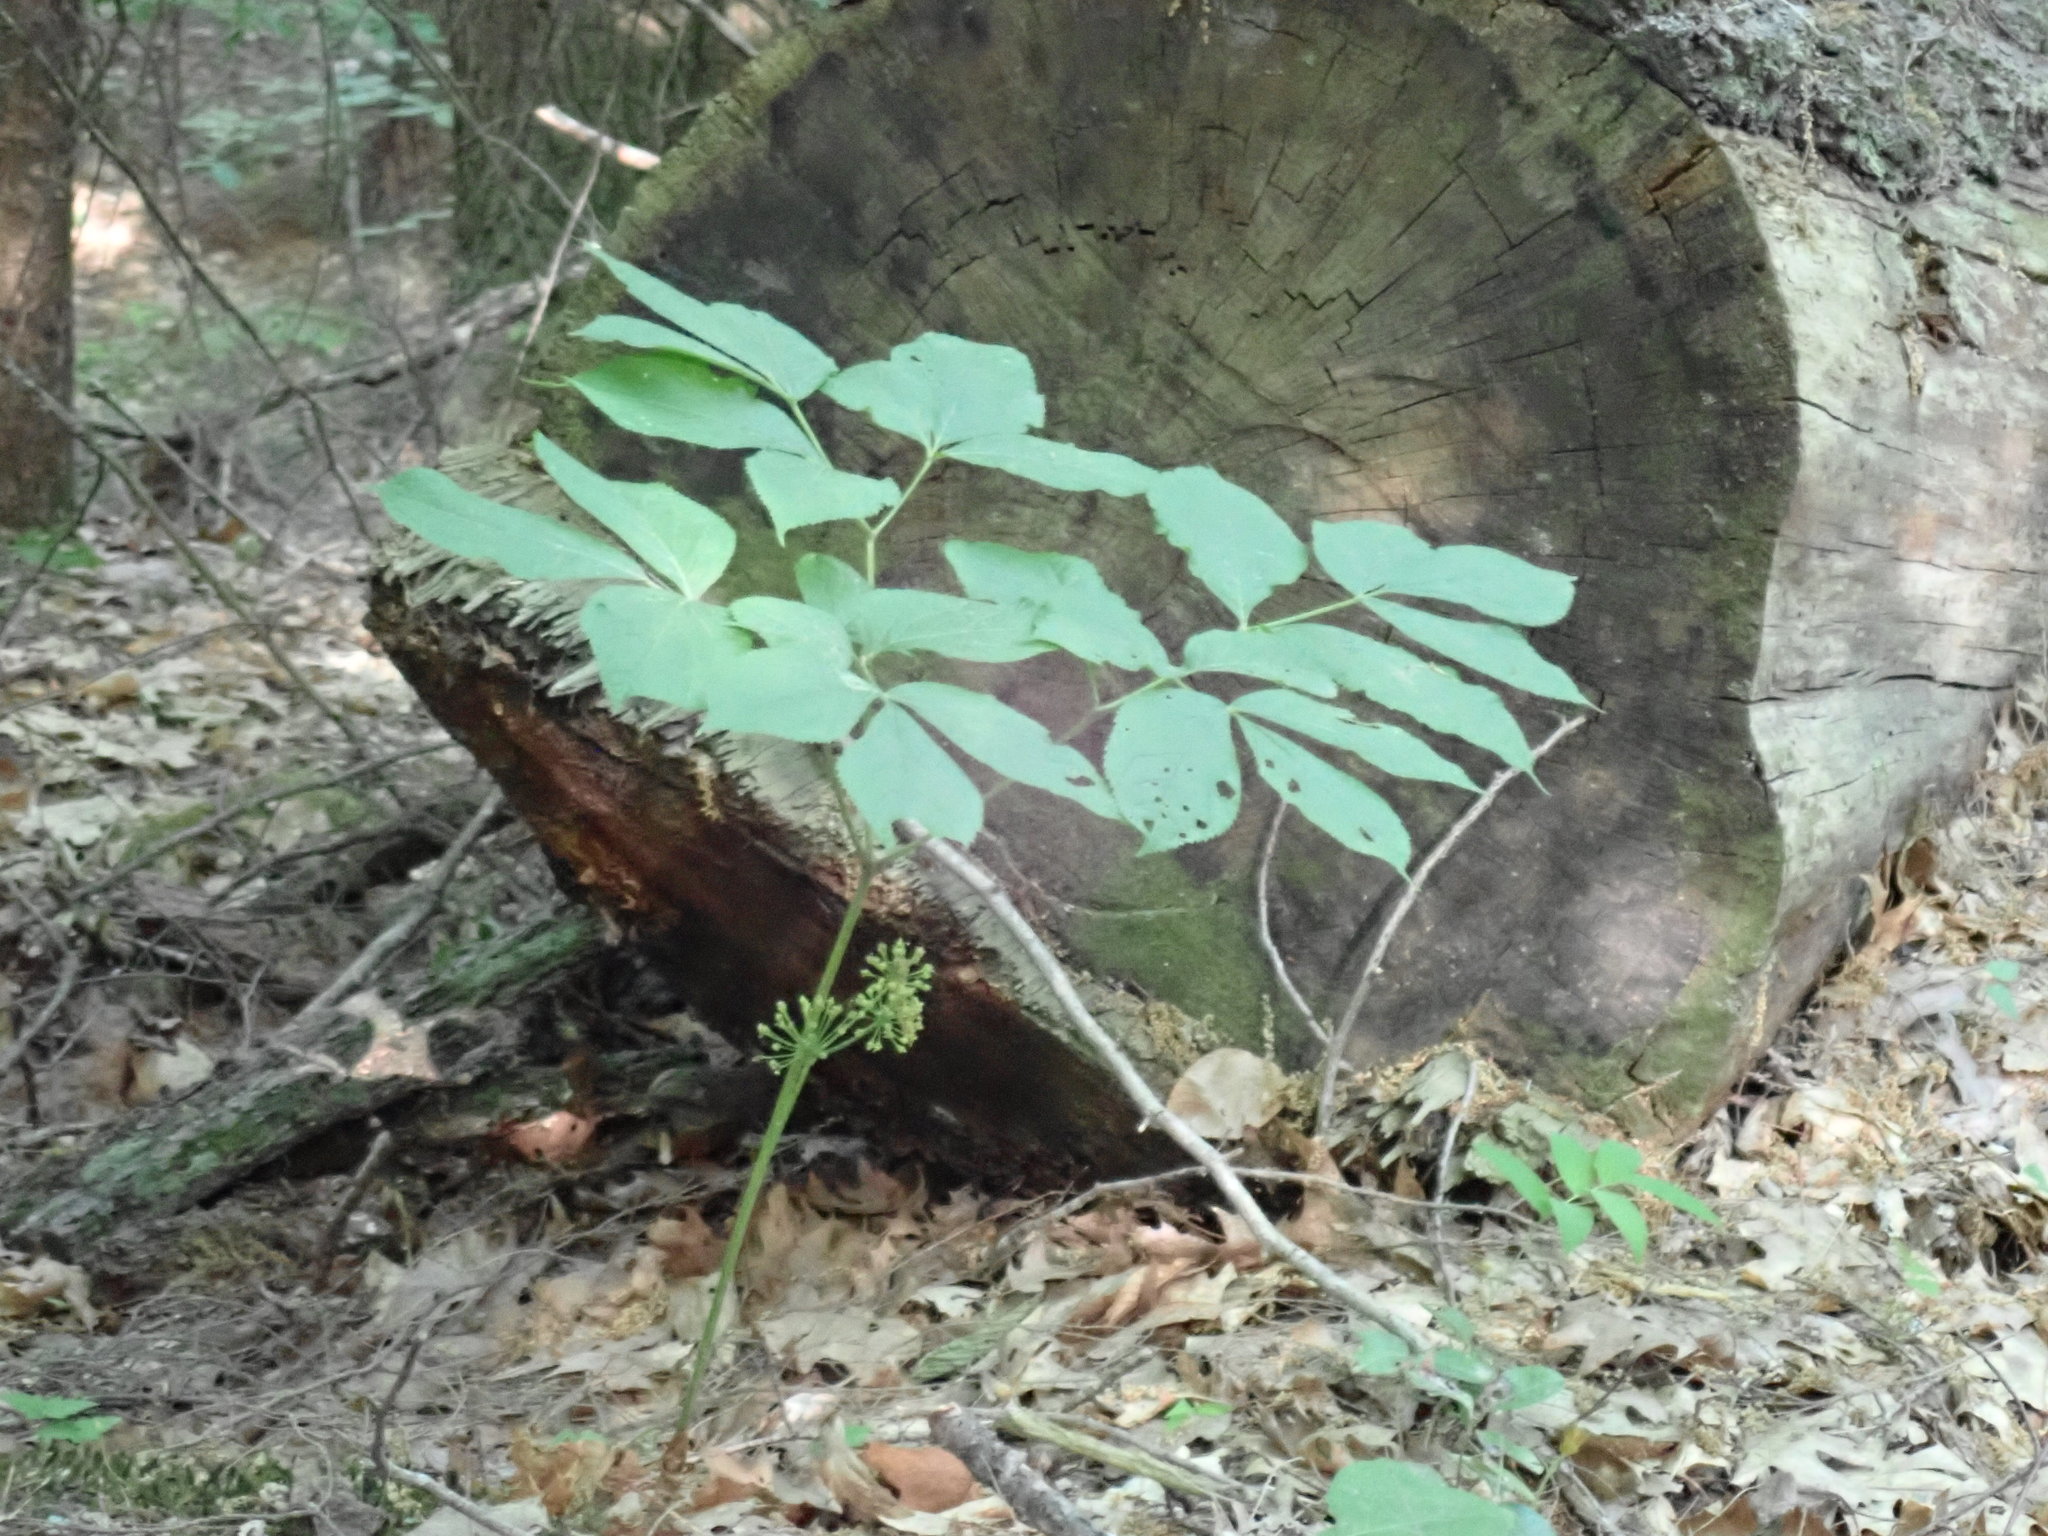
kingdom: Plantae
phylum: Tracheophyta
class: Magnoliopsida
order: Apiales
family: Araliaceae
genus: Aralia
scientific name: Aralia nudicaulis
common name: Wild sarsaparilla
